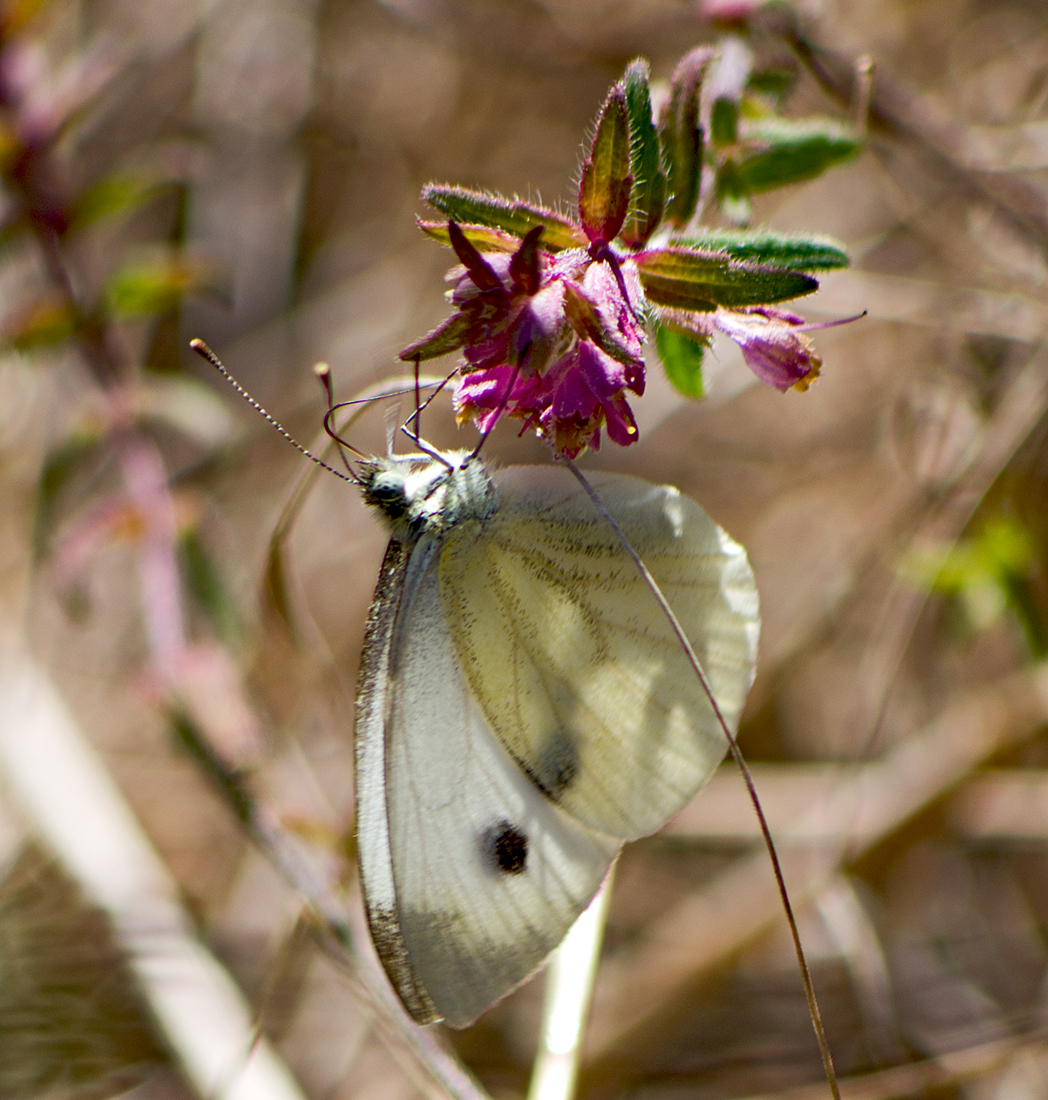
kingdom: Animalia
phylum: Arthropoda
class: Insecta
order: Lepidoptera
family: Pieridae
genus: Pieris
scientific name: Pieris napi
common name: Green-veined white
